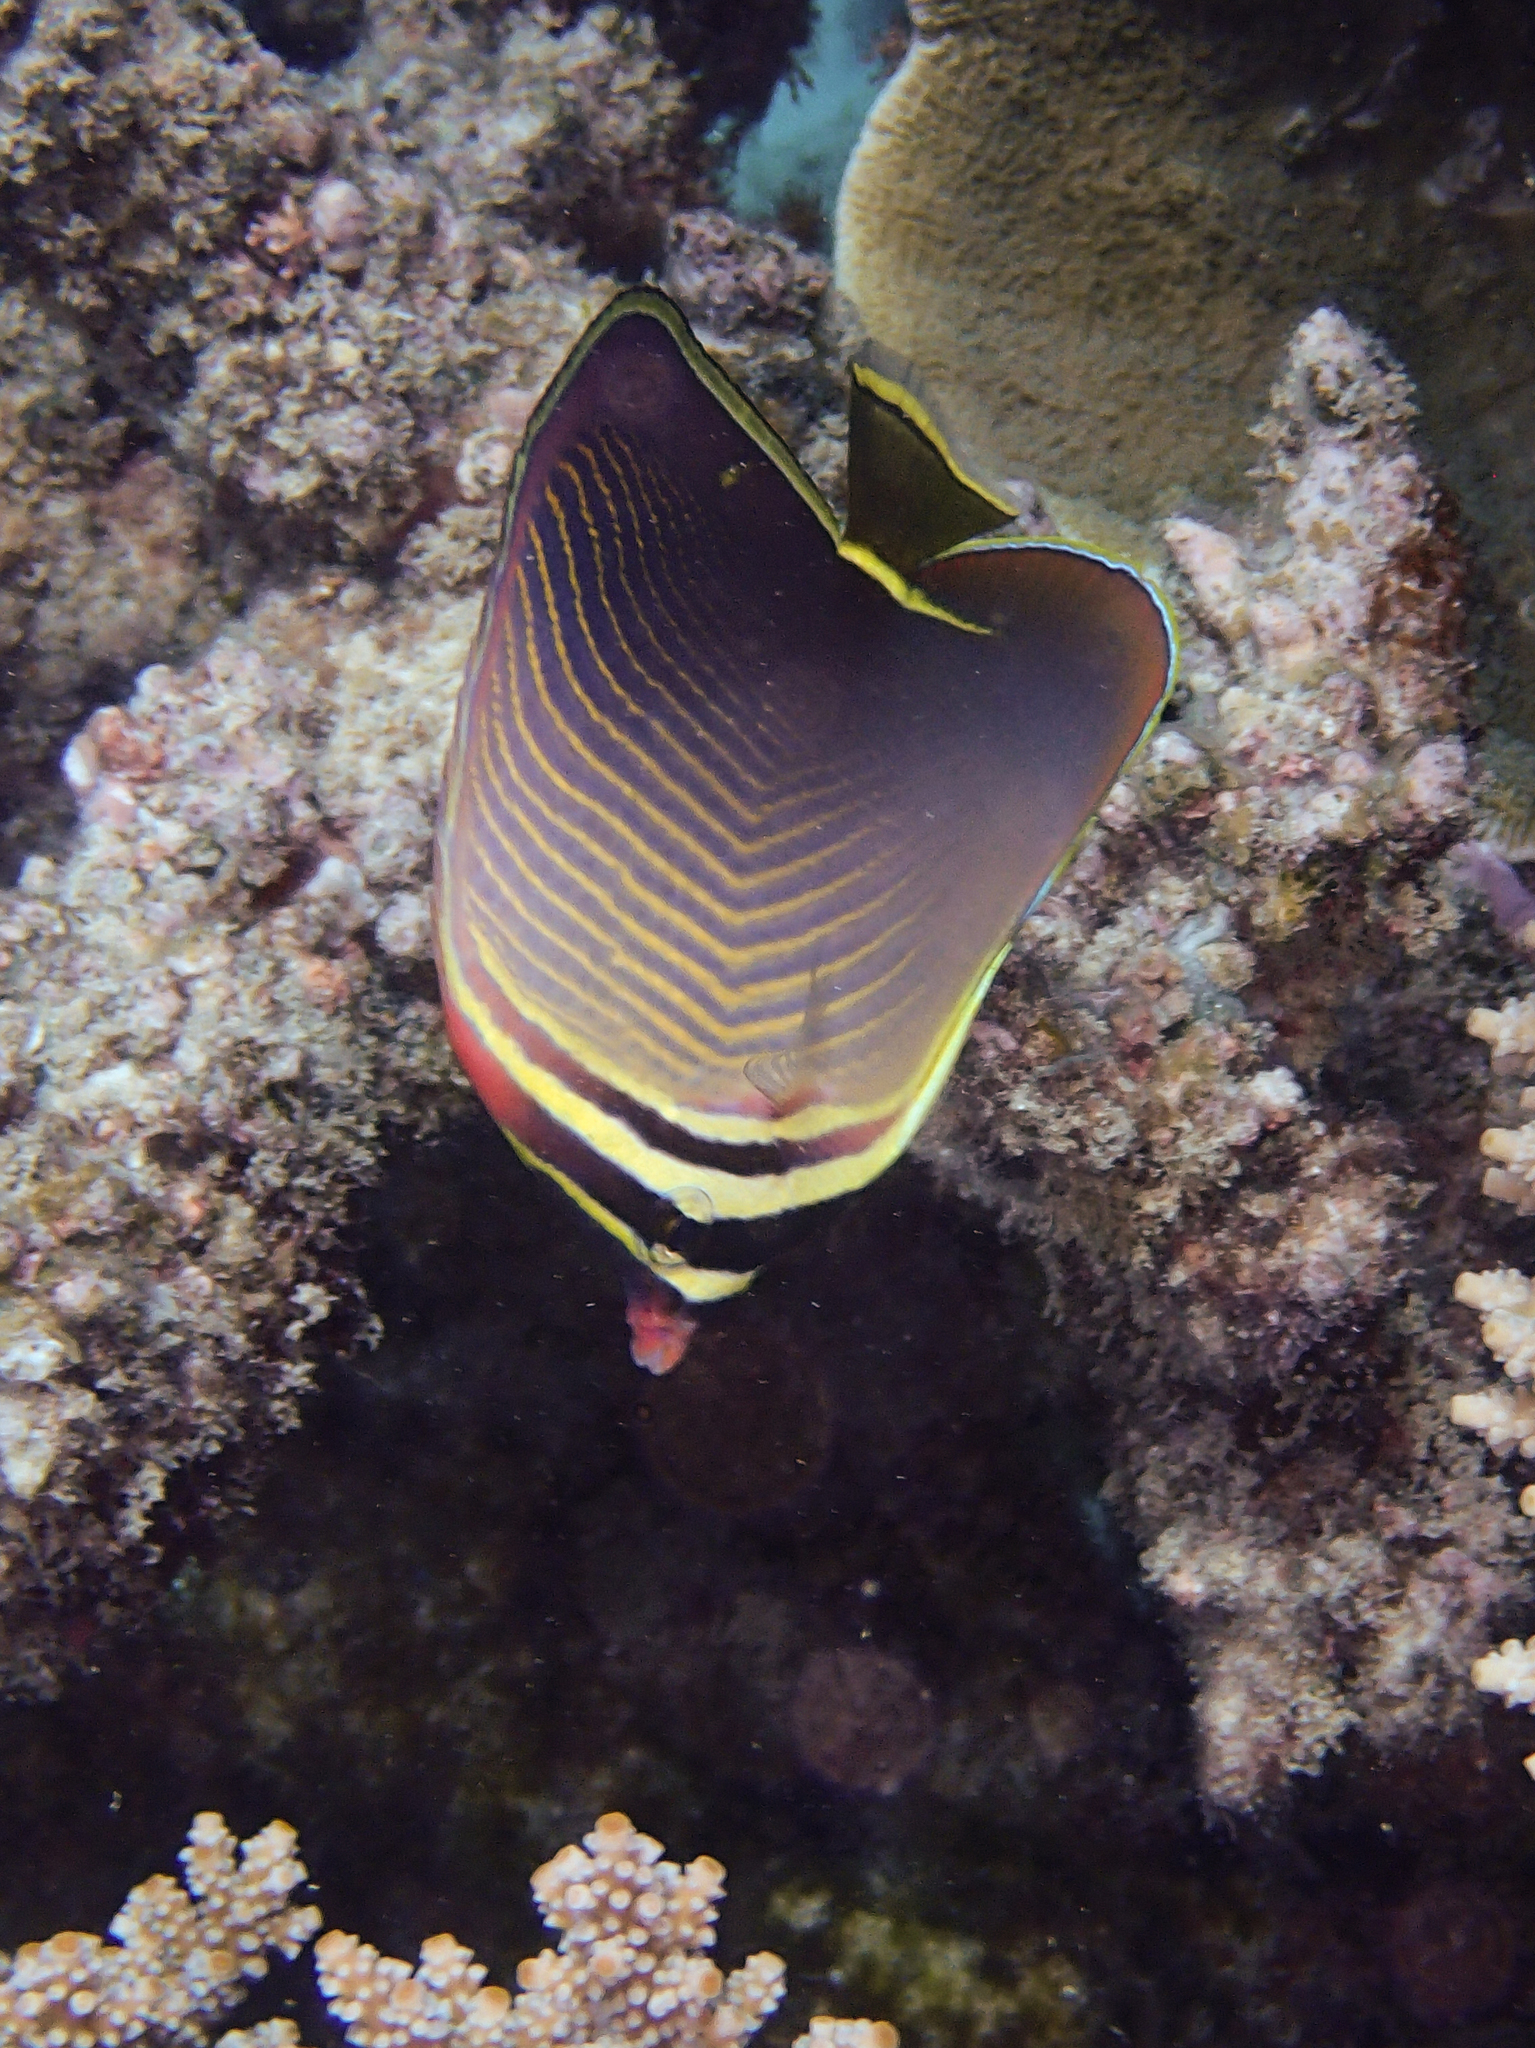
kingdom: Animalia
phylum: Chordata
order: Perciformes
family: Chaetodontidae
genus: Chaetodon
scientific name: Chaetodon baronessa
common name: Triangular butterflyfish
